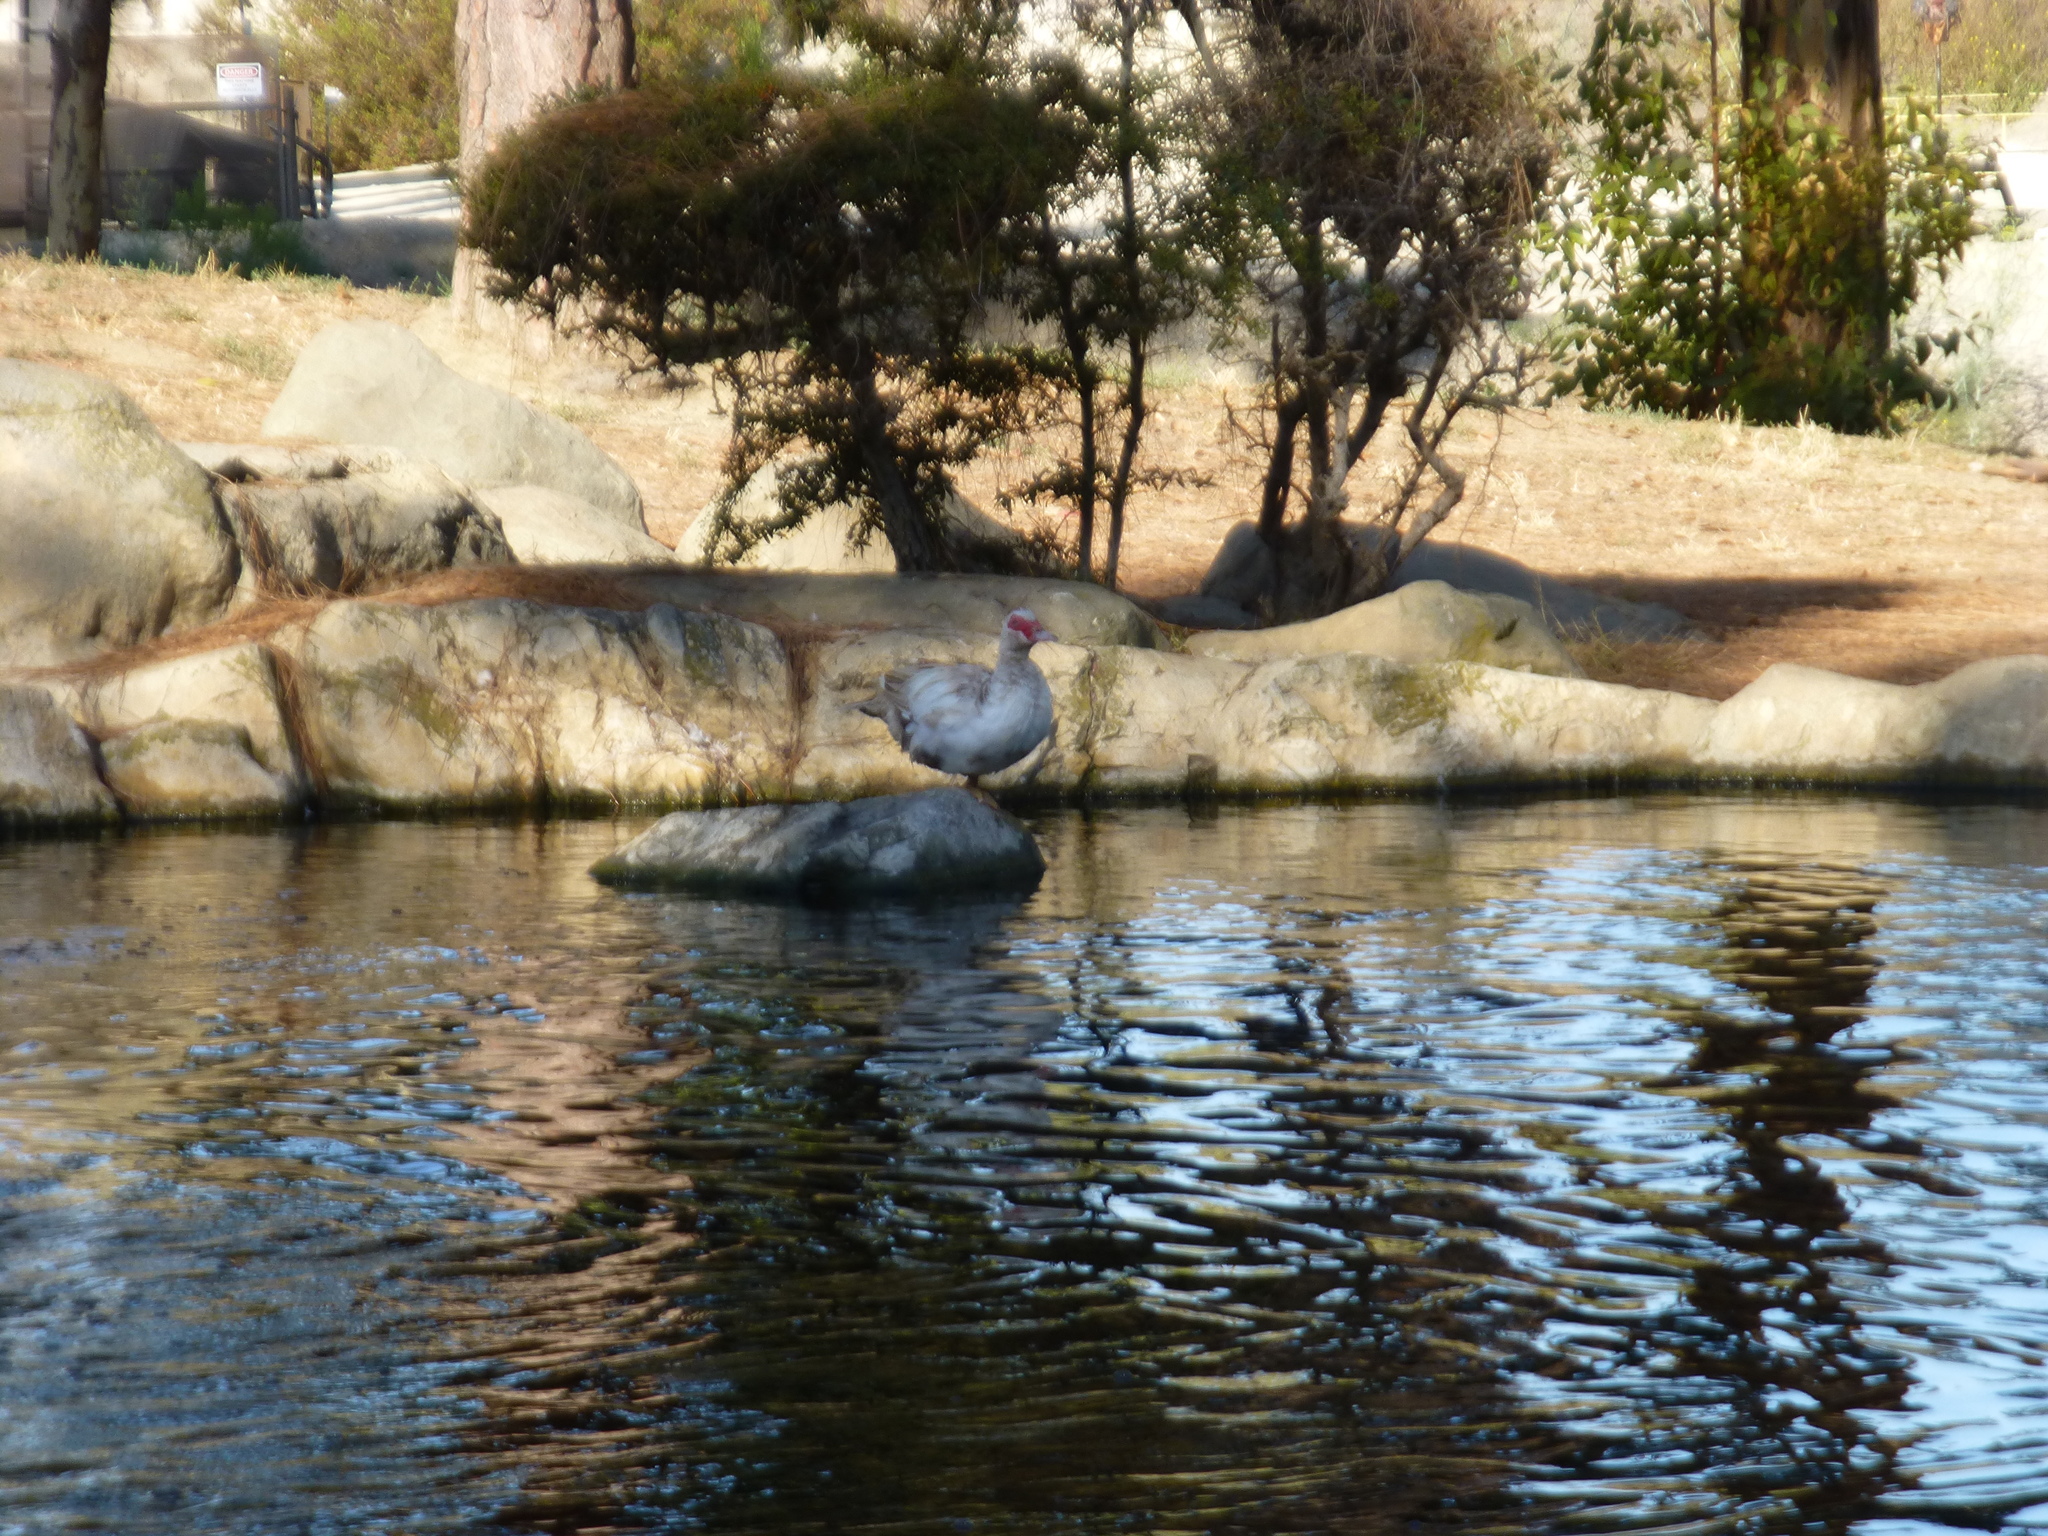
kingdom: Animalia
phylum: Chordata
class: Aves
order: Anseriformes
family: Anatidae
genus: Cairina
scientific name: Cairina moschata
